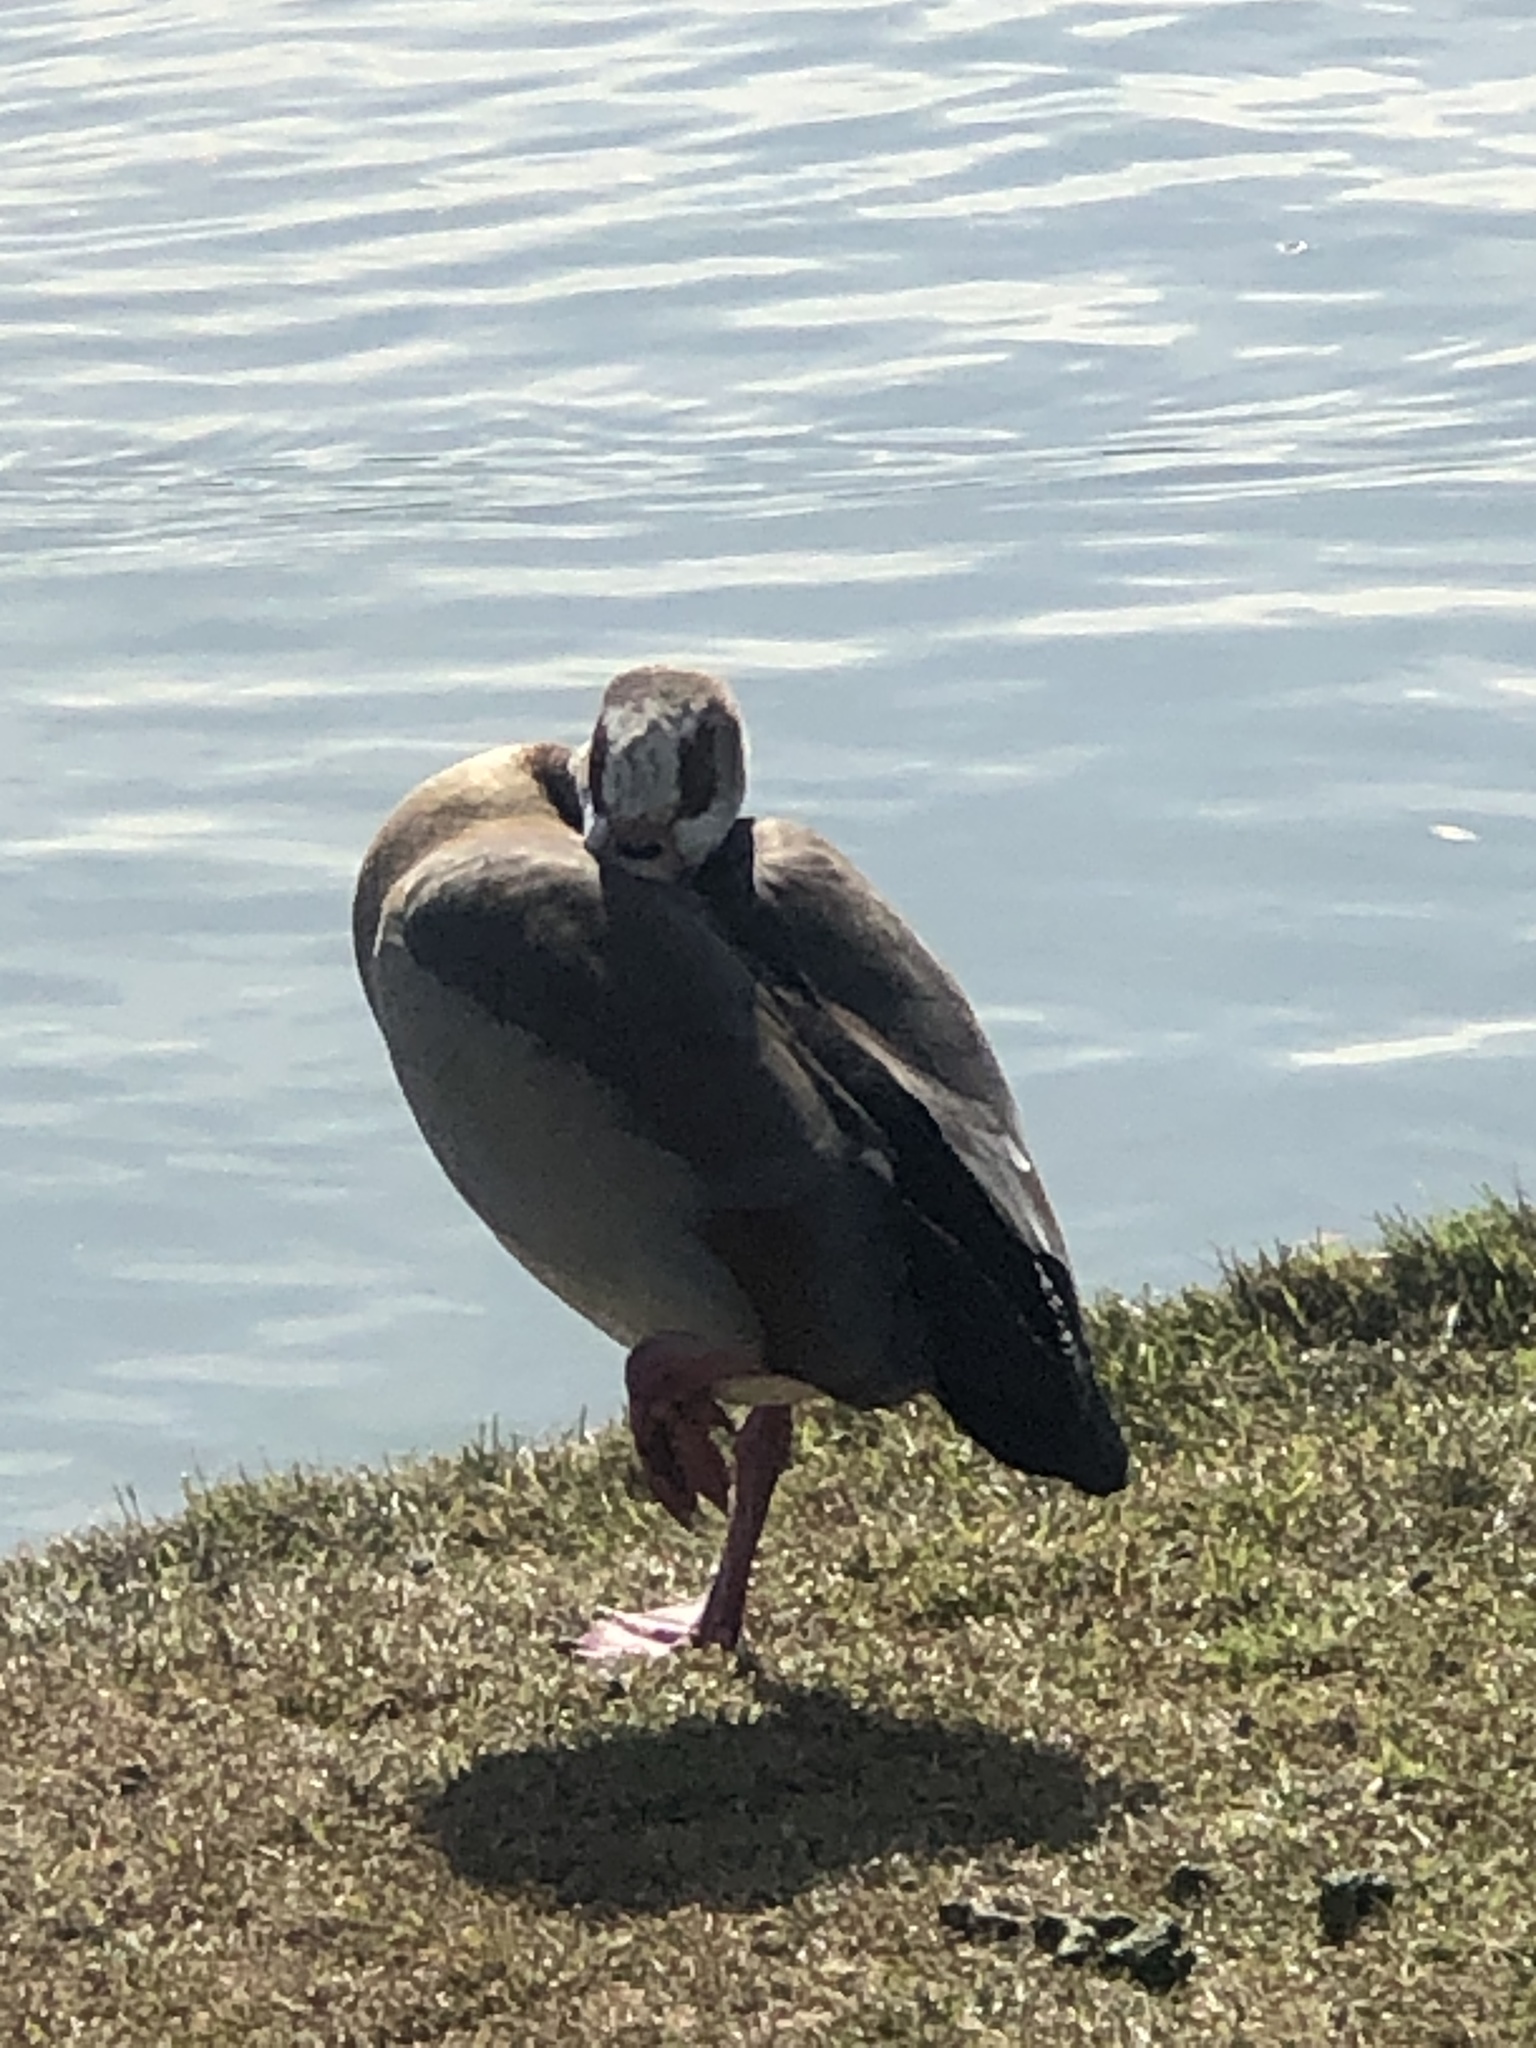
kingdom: Animalia
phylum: Chordata
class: Aves
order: Anseriformes
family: Anatidae
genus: Alopochen
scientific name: Alopochen aegyptiaca
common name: Egyptian goose
